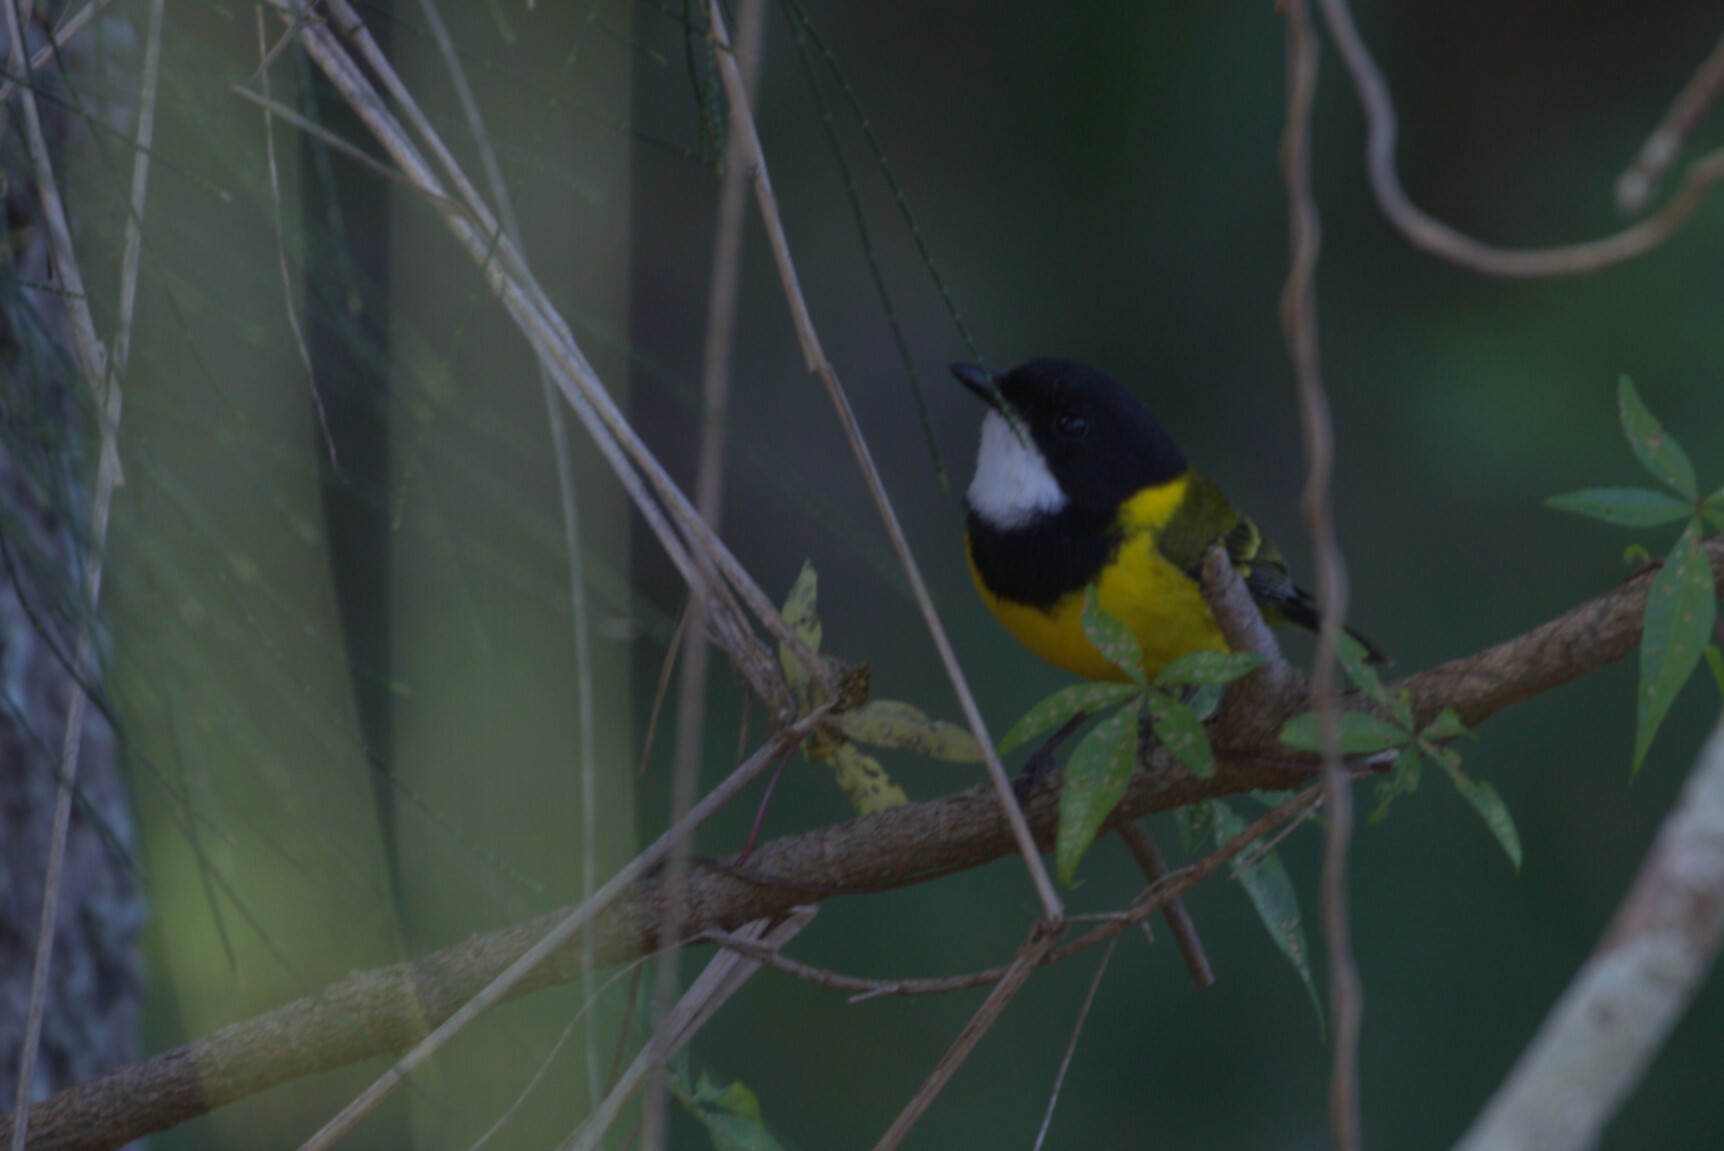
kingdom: Animalia
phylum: Chordata
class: Aves
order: Passeriformes
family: Pachycephalidae
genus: Pachycephala
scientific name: Pachycephala pectoralis
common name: Australian golden whistler
